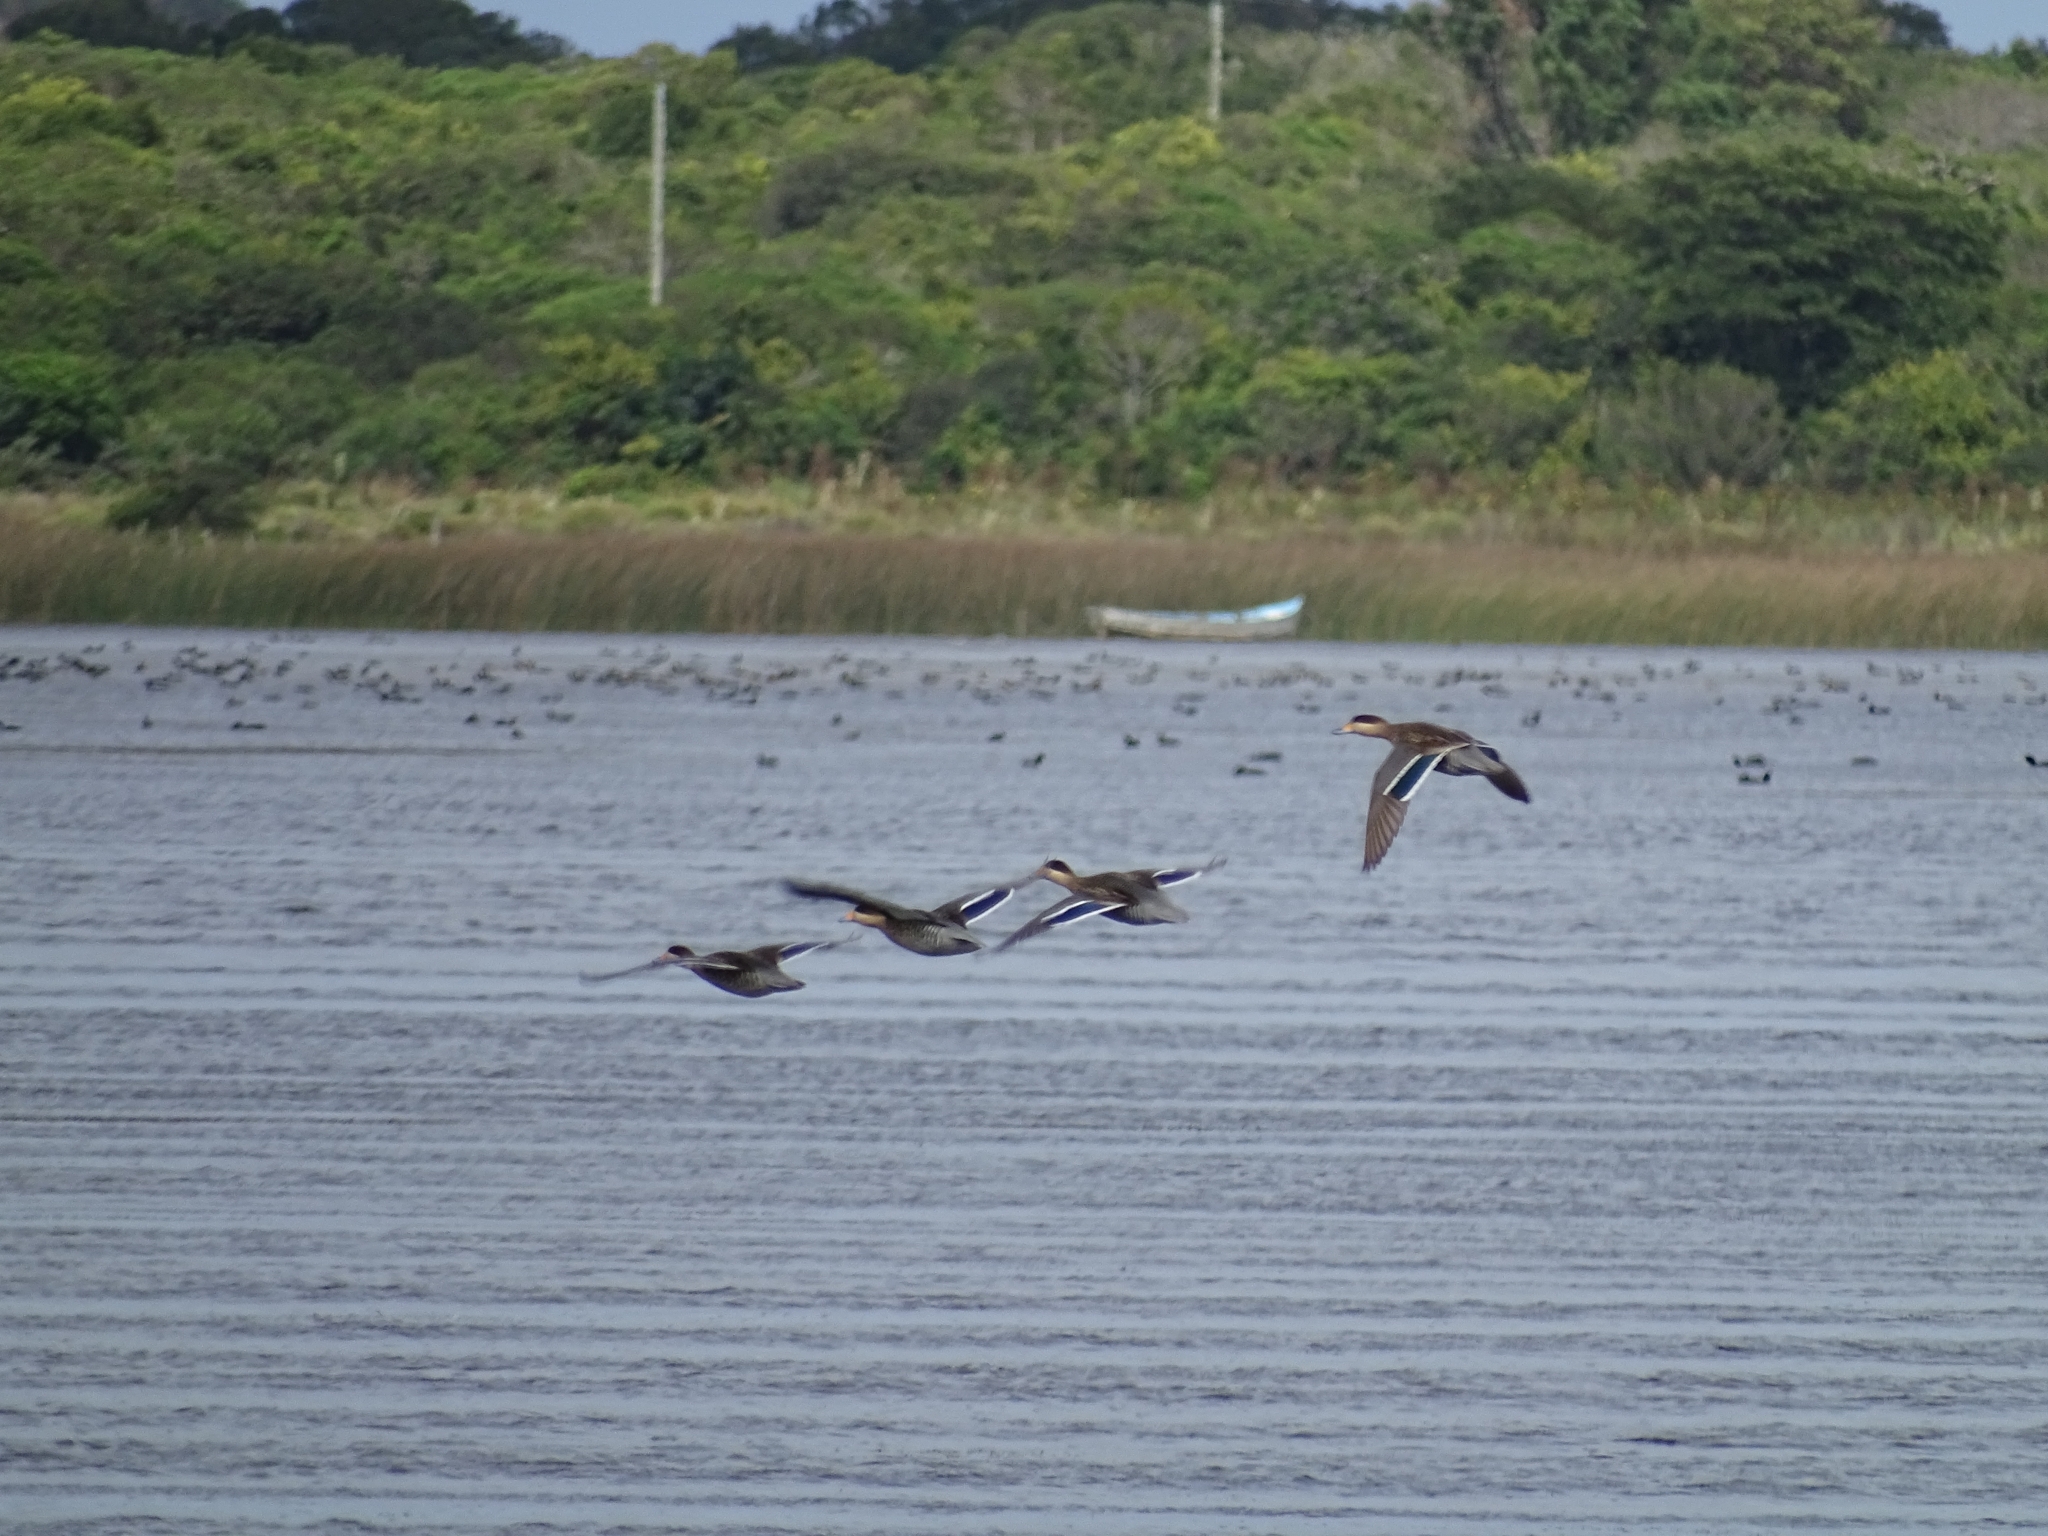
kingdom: Animalia
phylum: Chordata
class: Aves
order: Anseriformes
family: Anatidae
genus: Spatula
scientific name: Spatula versicolor
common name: Silver teal
